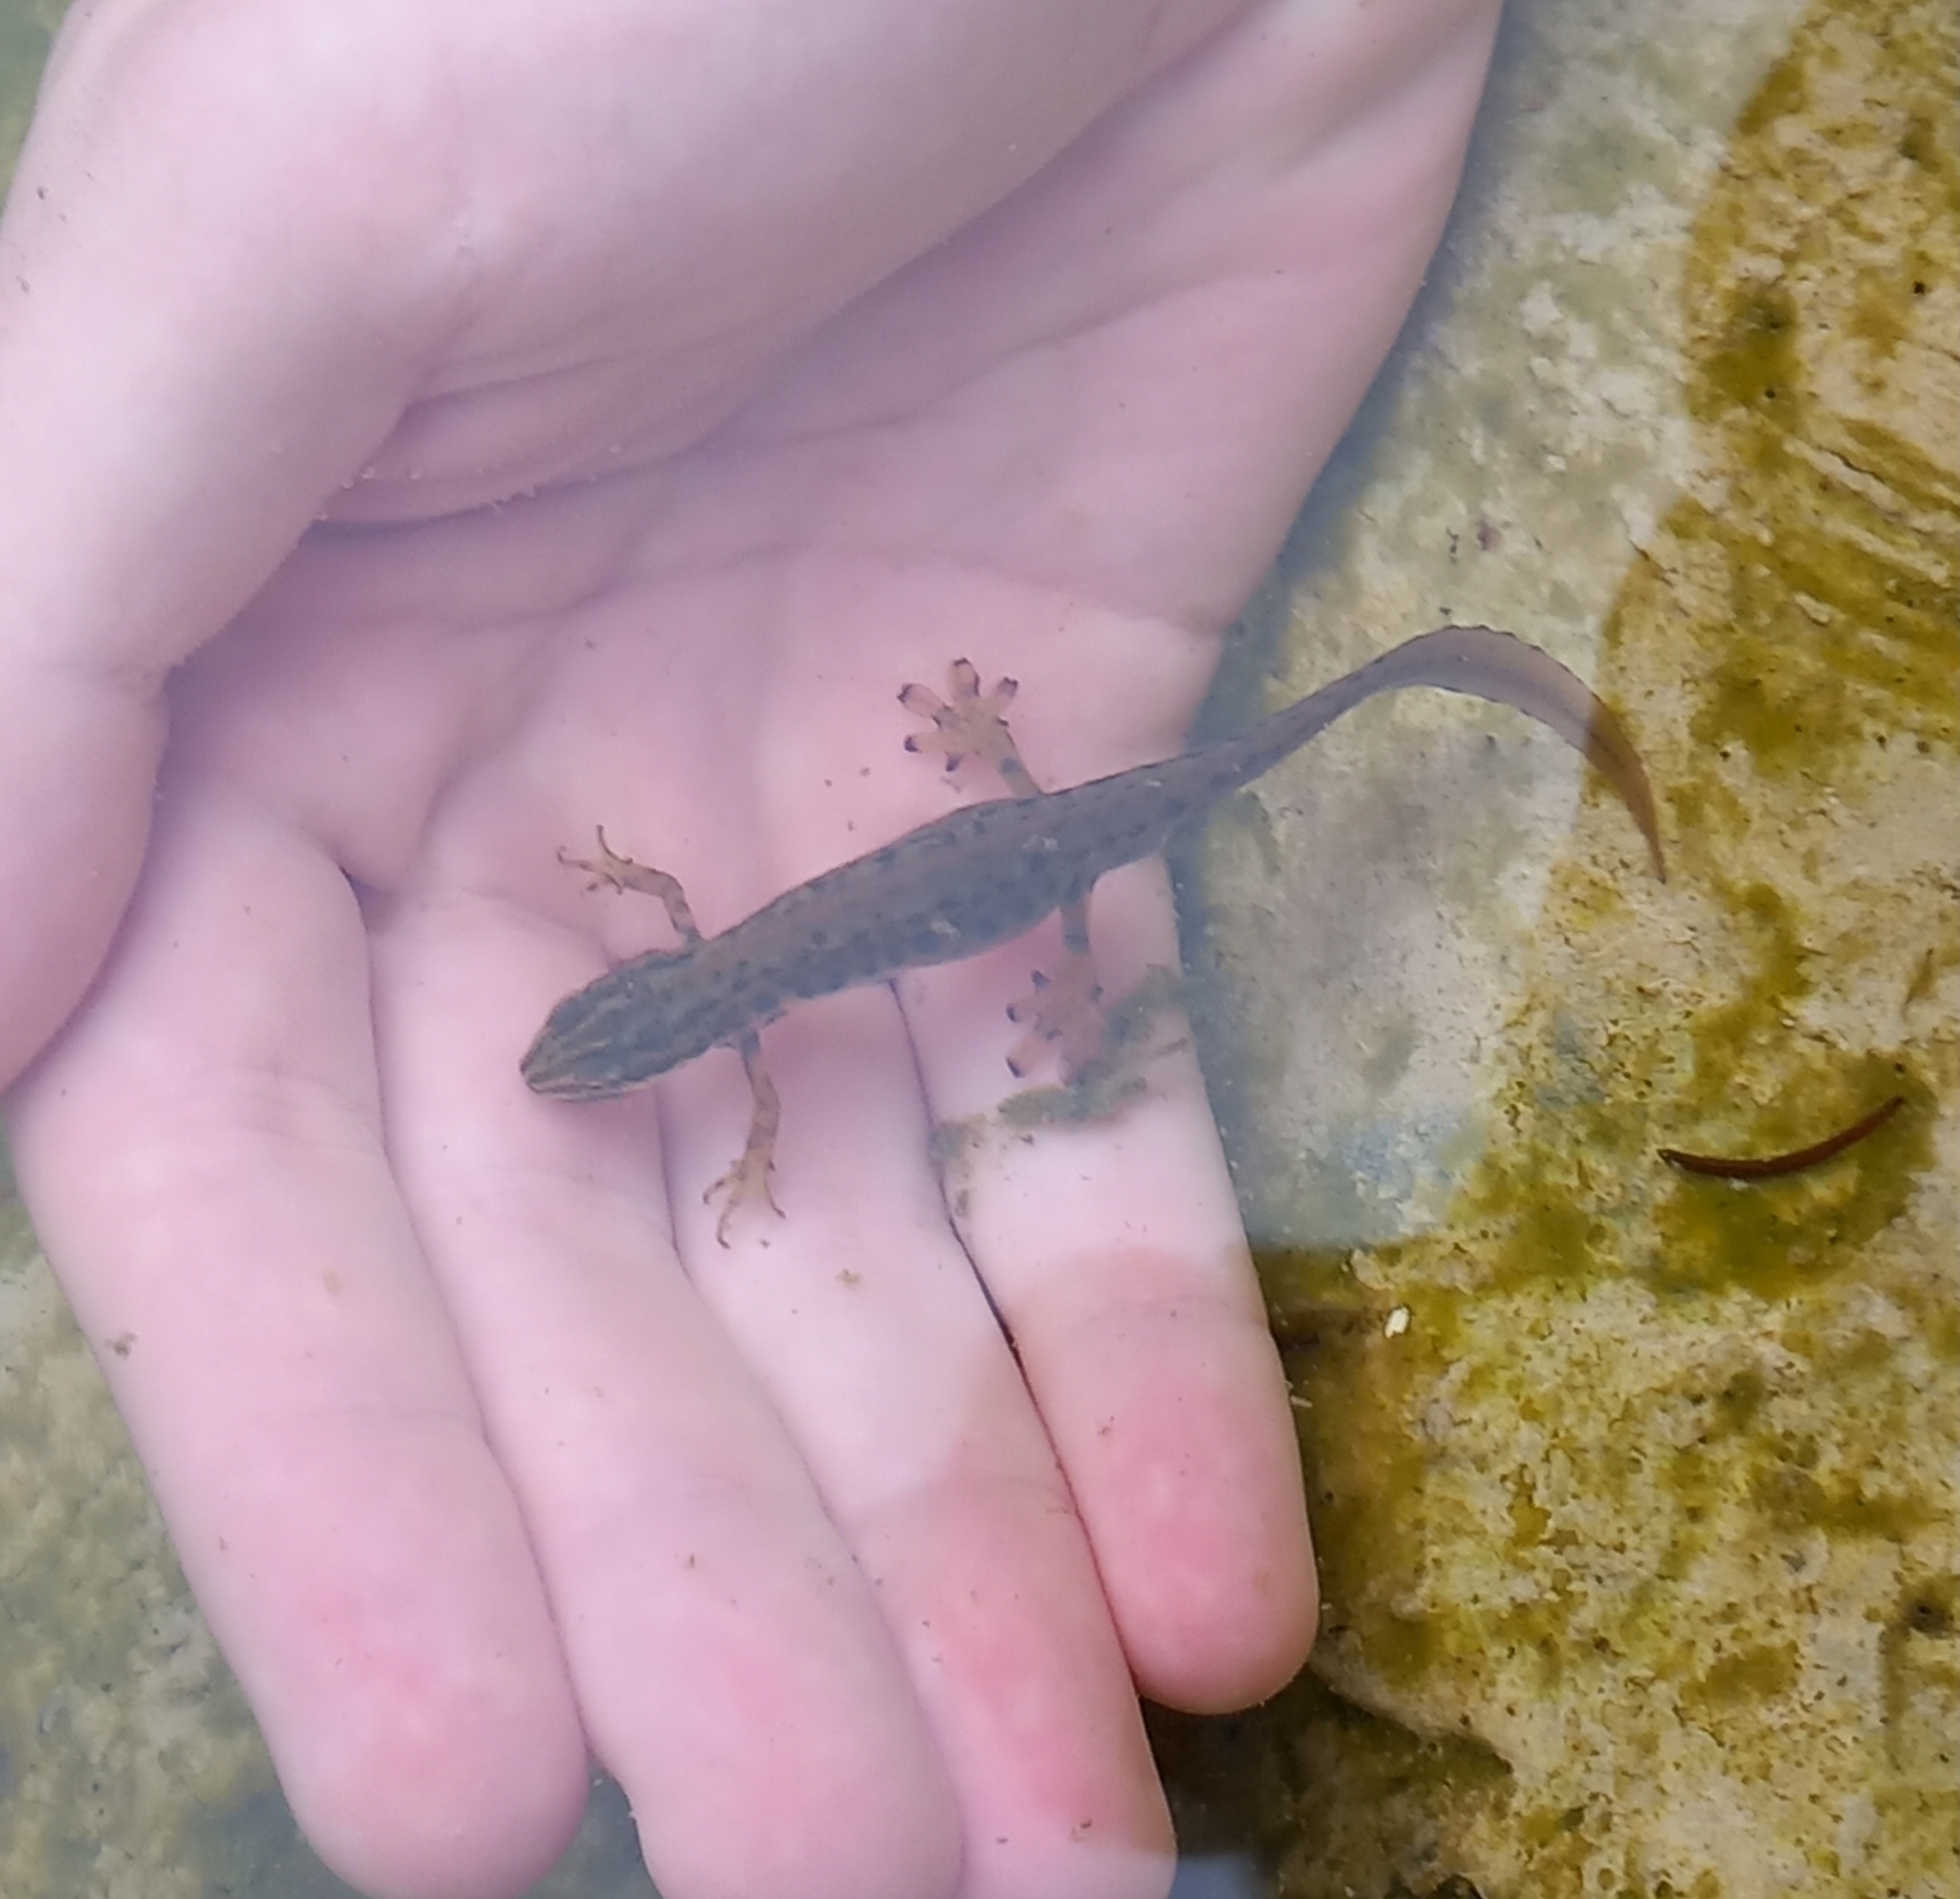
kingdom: Animalia
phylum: Chordata
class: Amphibia
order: Caudata
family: Salamandridae
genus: Lissotriton
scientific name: Lissotriton vulgaris
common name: Smooth newt
